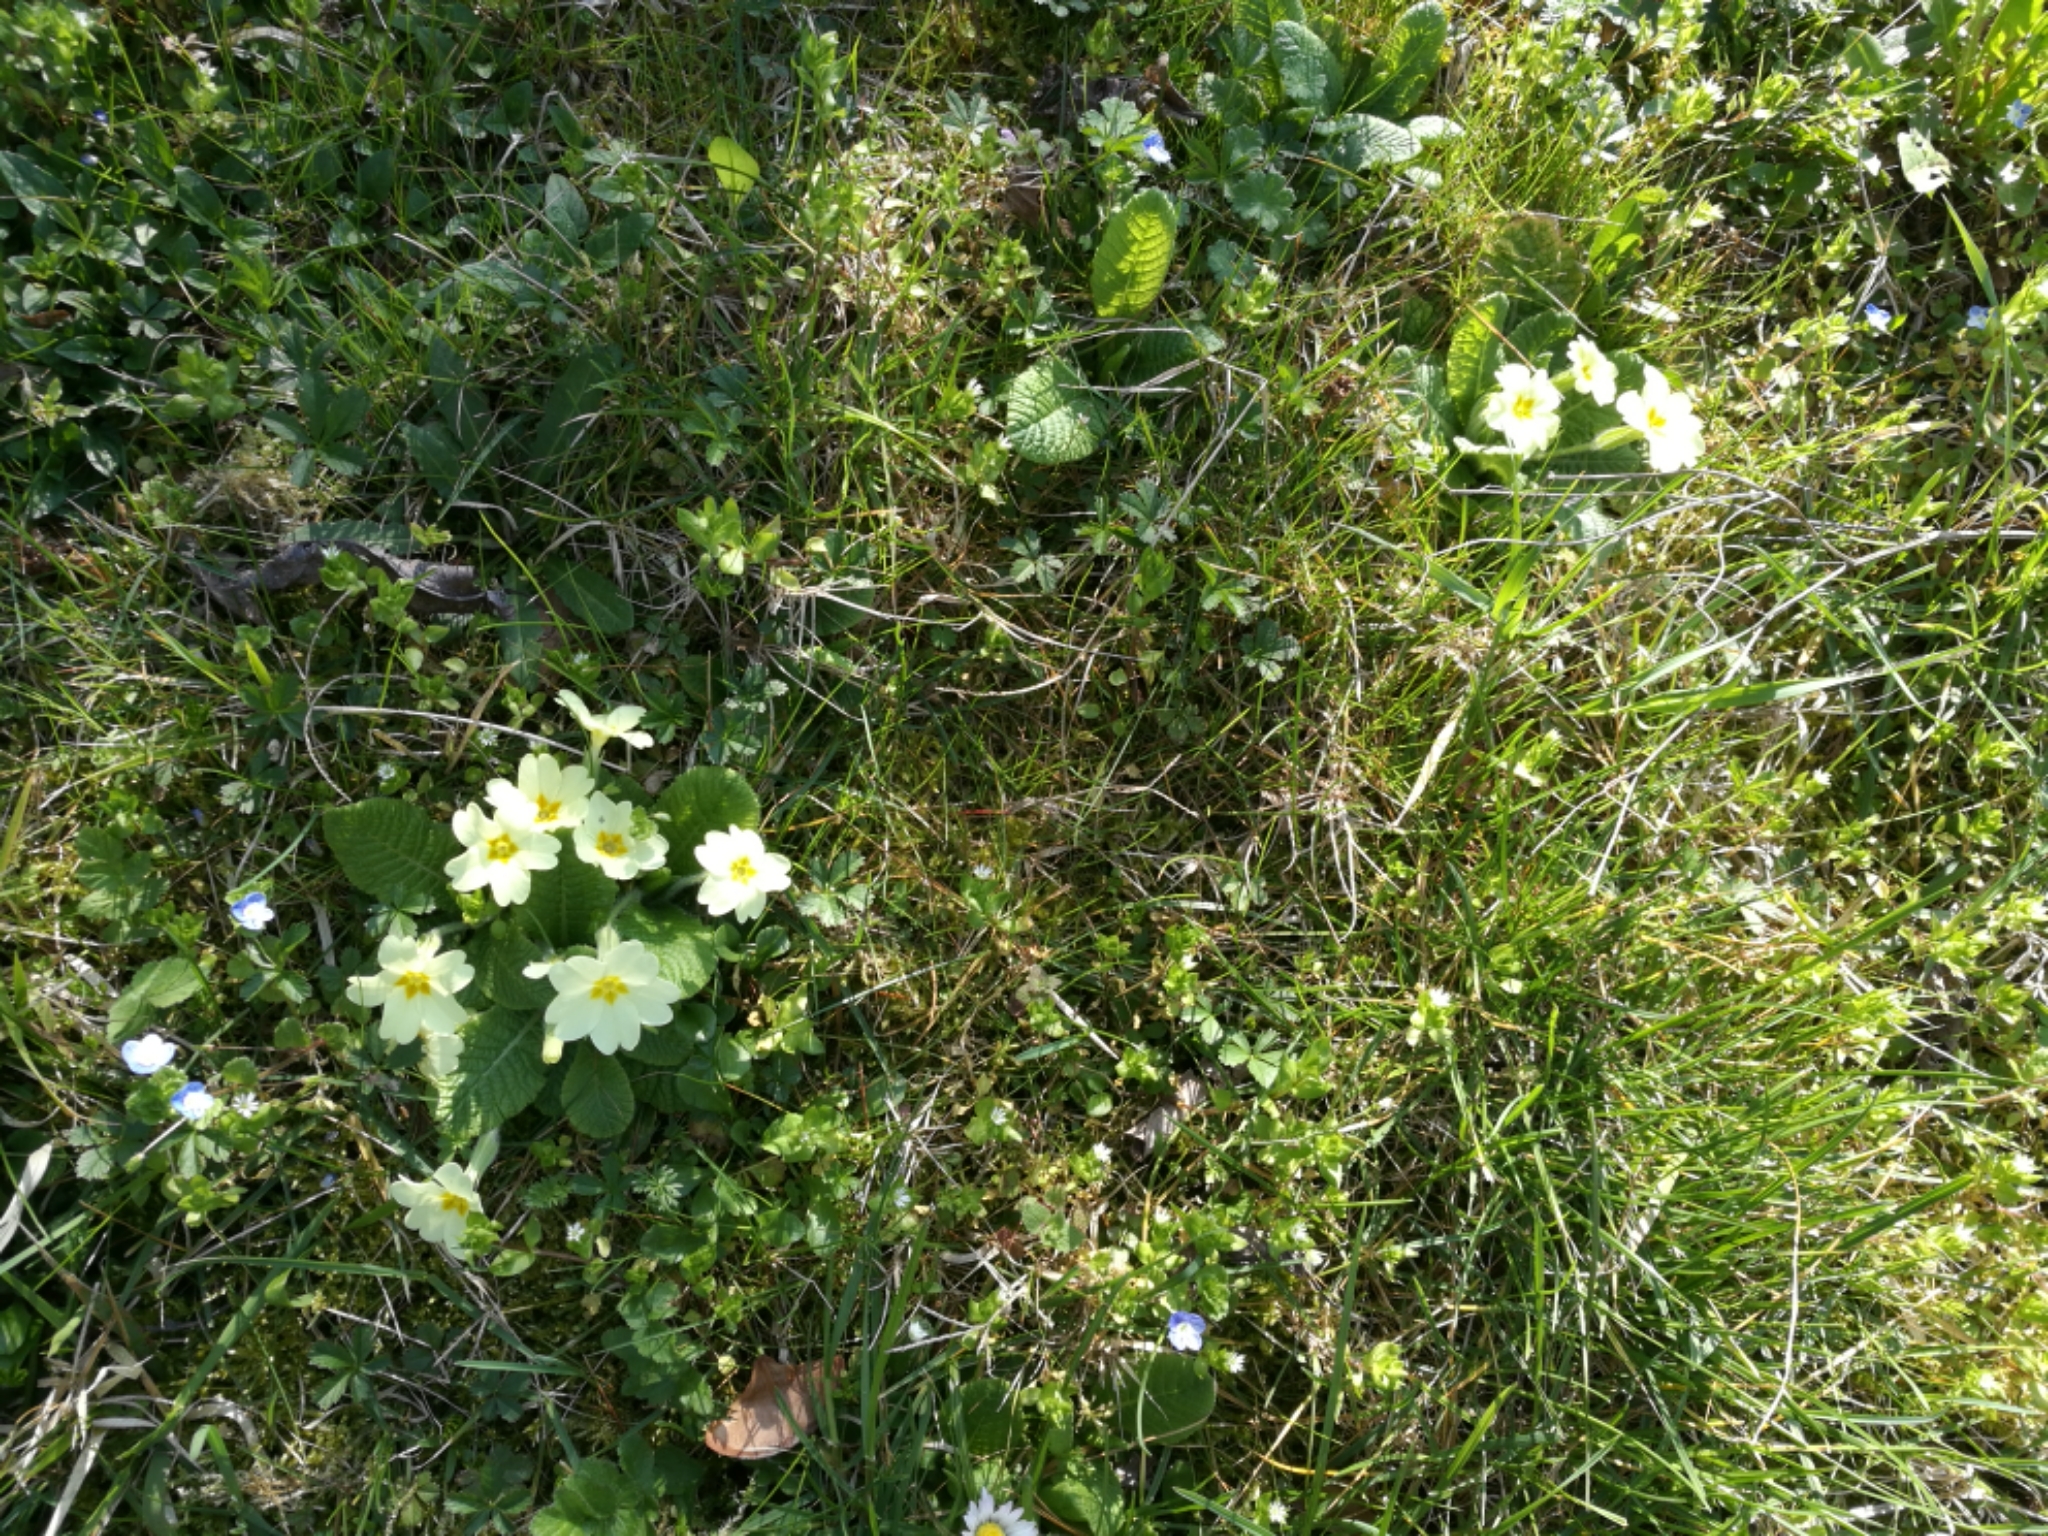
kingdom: Plantae
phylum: Tracheophyta
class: Magnoliopsida
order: Ericales
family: Primulaceae
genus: Primula
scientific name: Primula vulgaris
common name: Primrose
